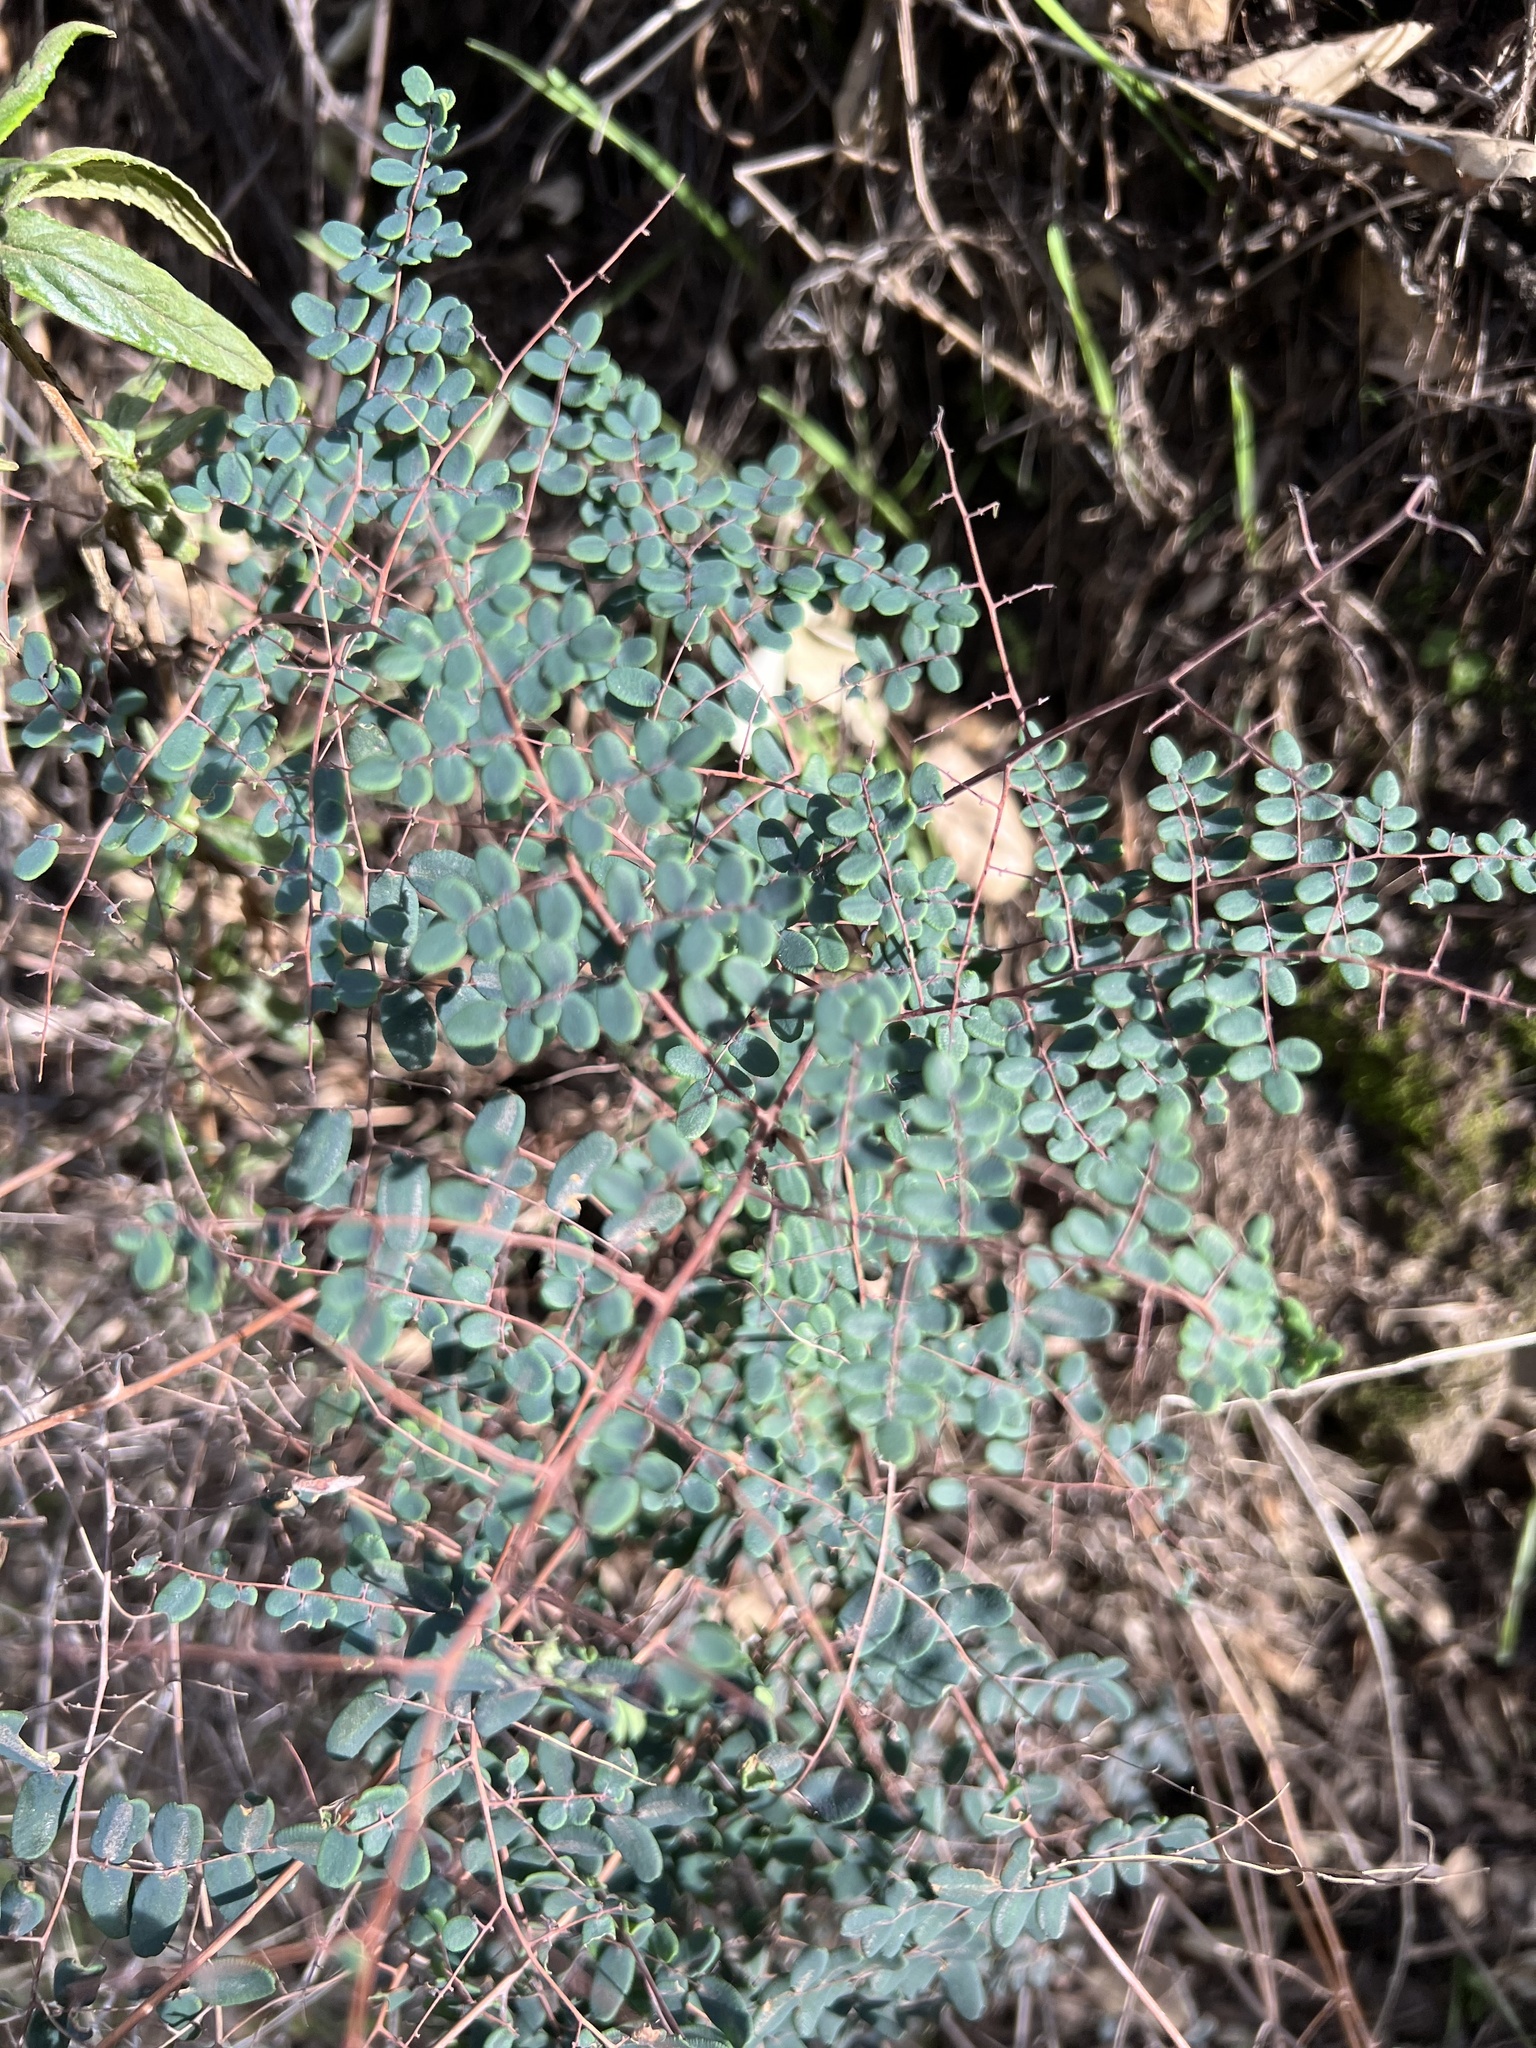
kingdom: Plantae
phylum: Tracheophyta
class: Polypodiopsida
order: Polypodiales
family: Pteridaceae
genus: Pellaea
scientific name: Pellaea andromedifolia
